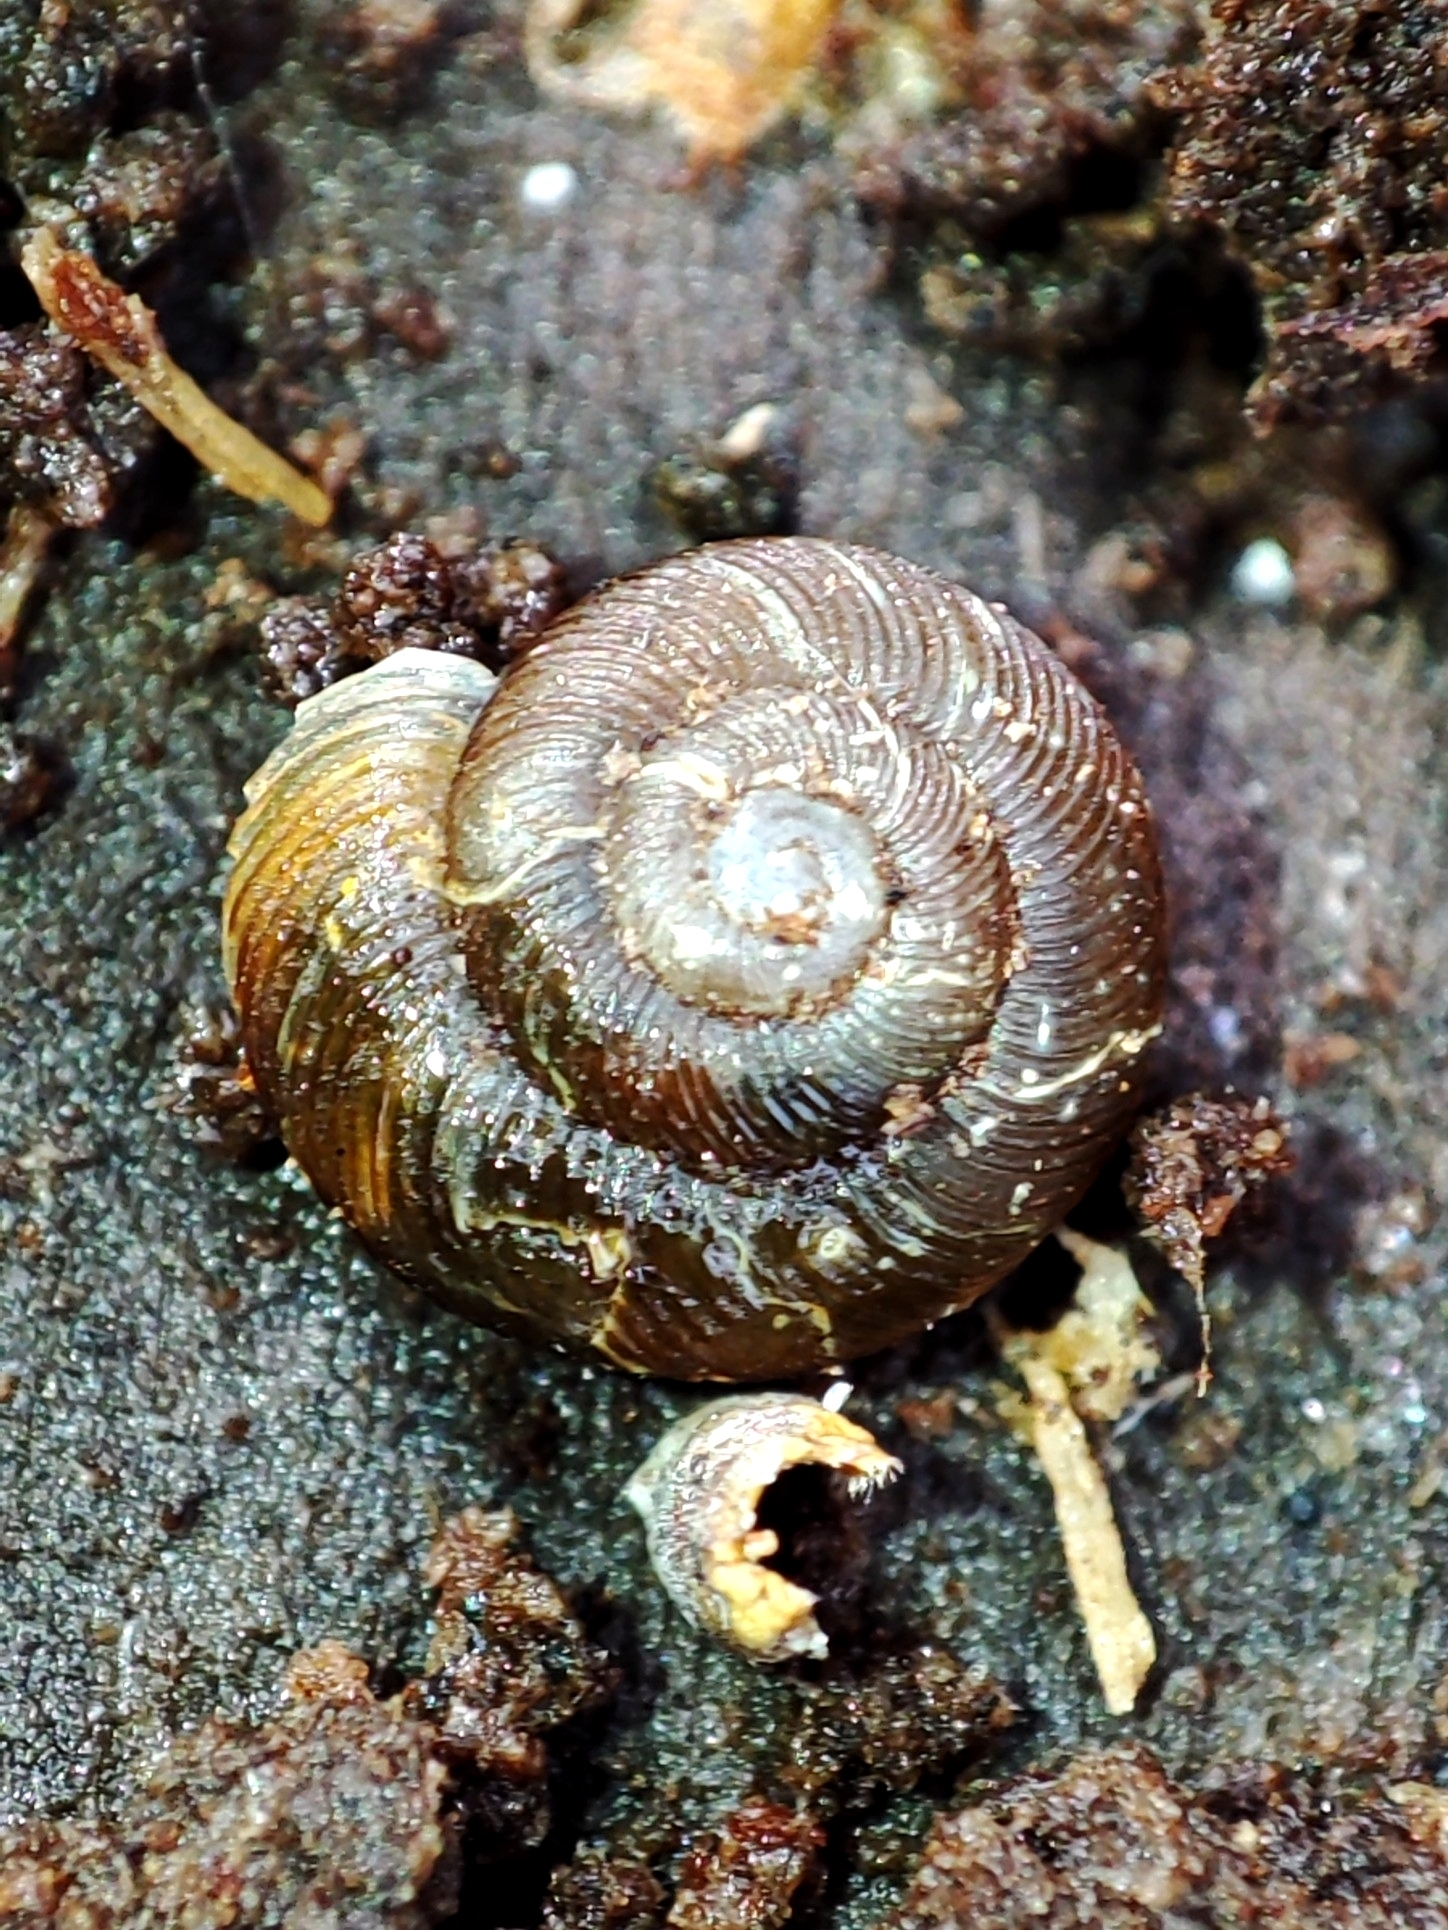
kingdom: Animalia
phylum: Mollusca
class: Gastropoda
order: Stylommatophora
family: Discidae
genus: Discus
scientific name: Discus ruderatus
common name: Brown disc snail
